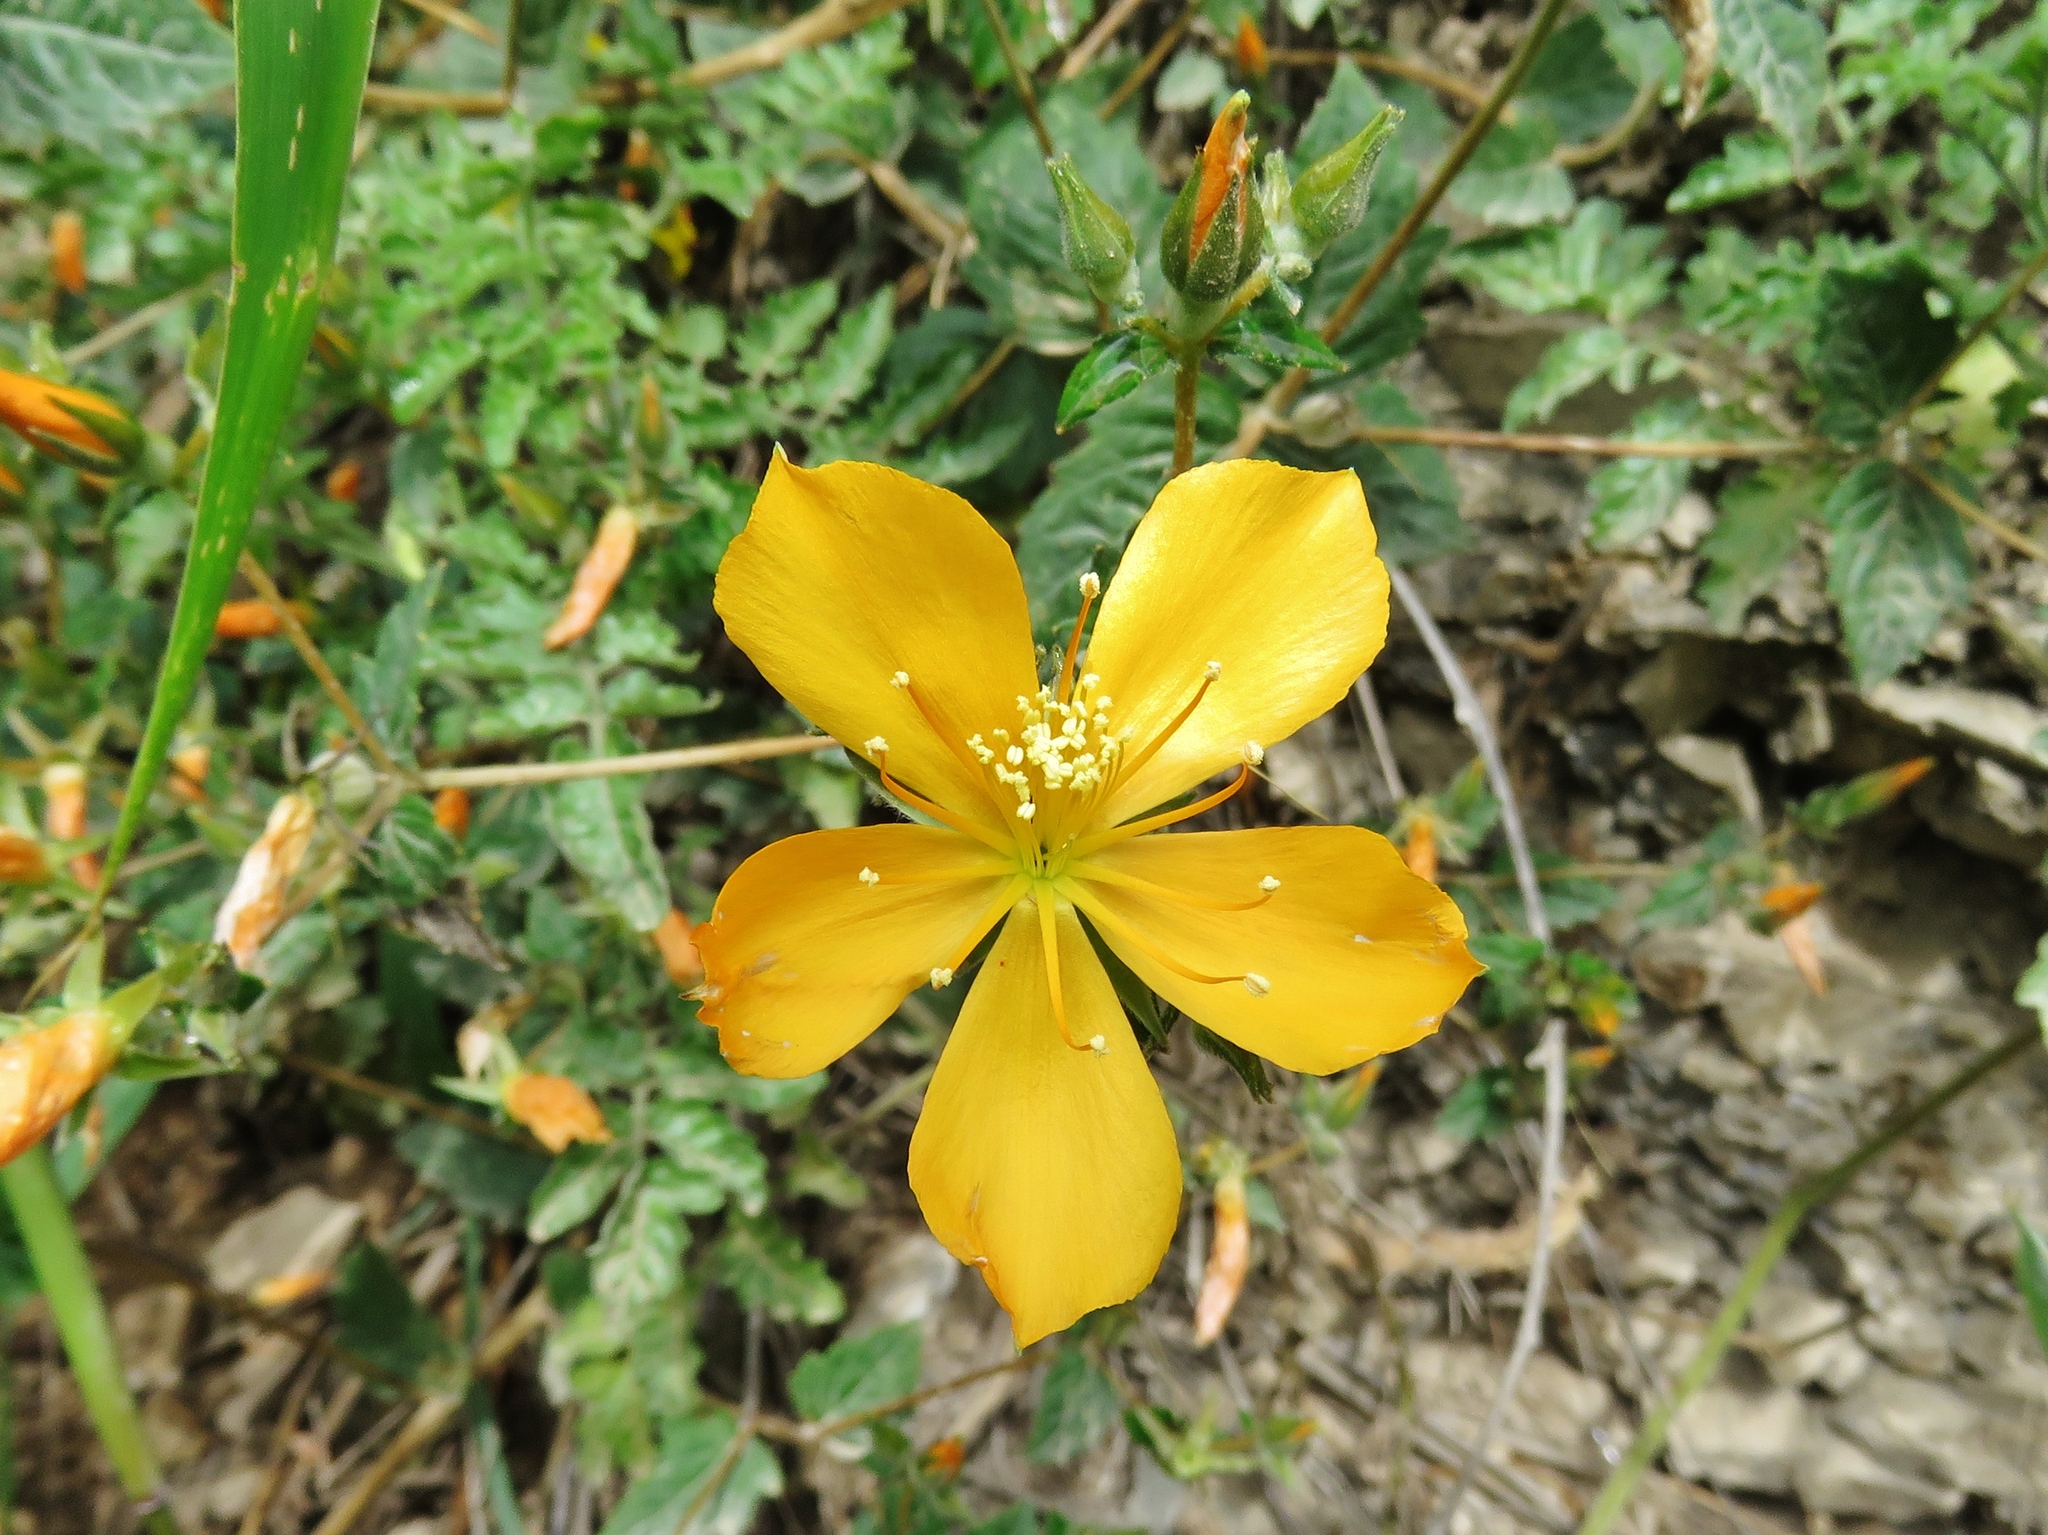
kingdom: Plantae
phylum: Tracheophyta
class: Magnoliopsida
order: Cornales
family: Loasaceae
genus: Mentzelia
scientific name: Mentzelia angurate
